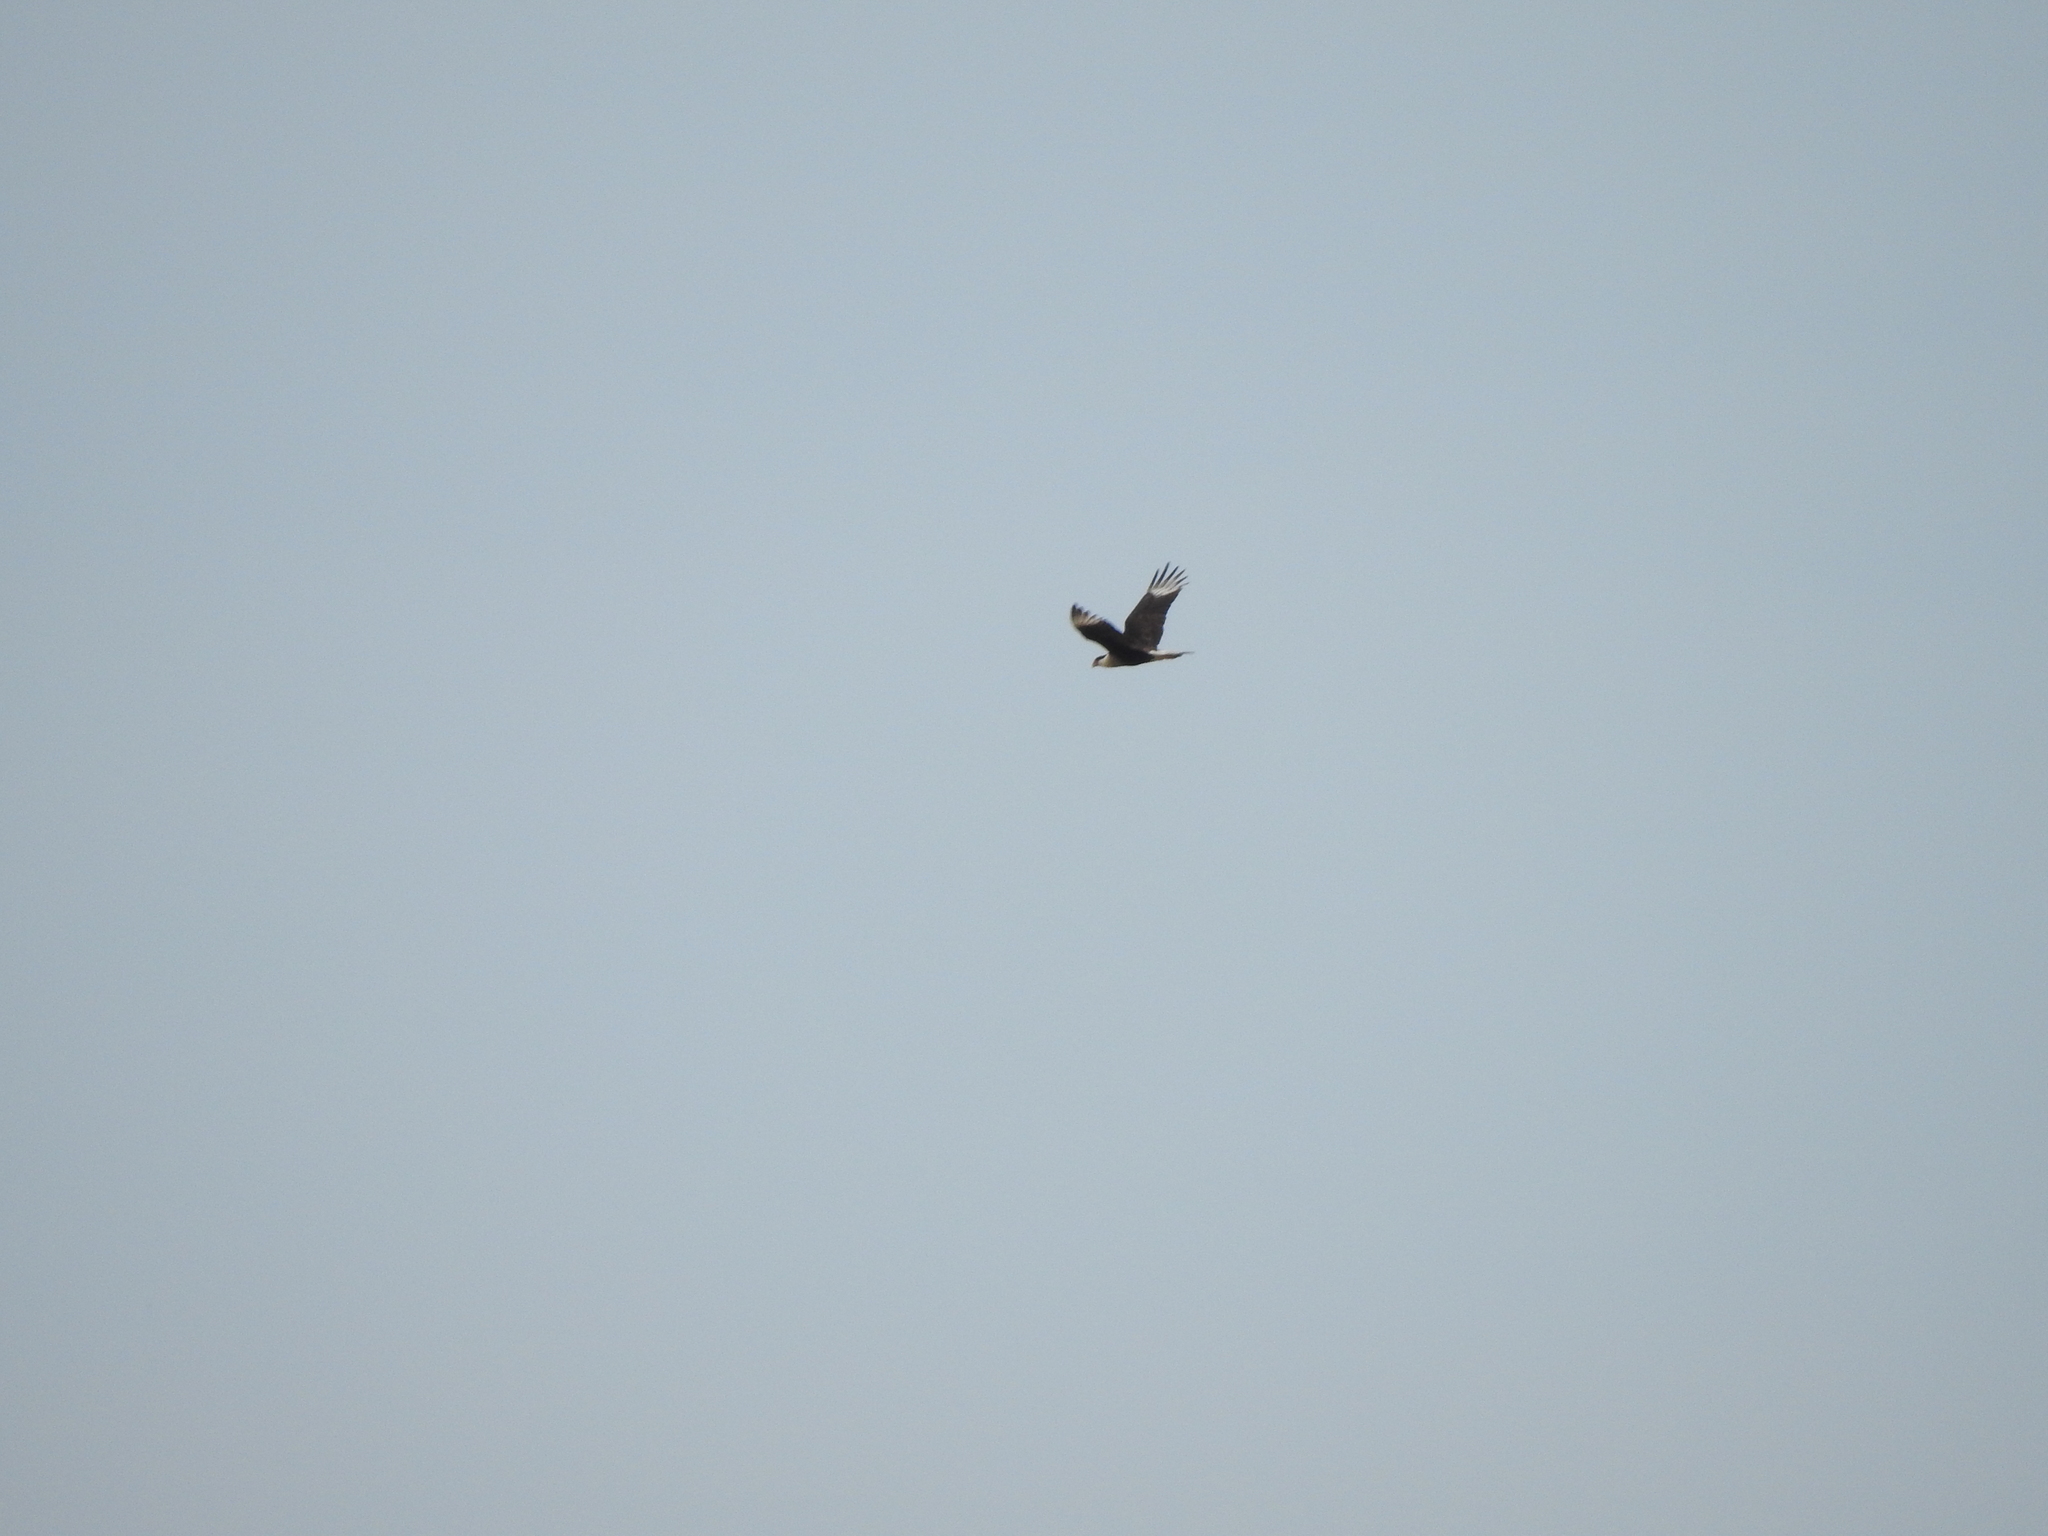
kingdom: Animalia
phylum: Chordata
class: Aves
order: Falconiformes
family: Falconidae
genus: Caracara
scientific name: Caracara plancus
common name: Southern caracara
